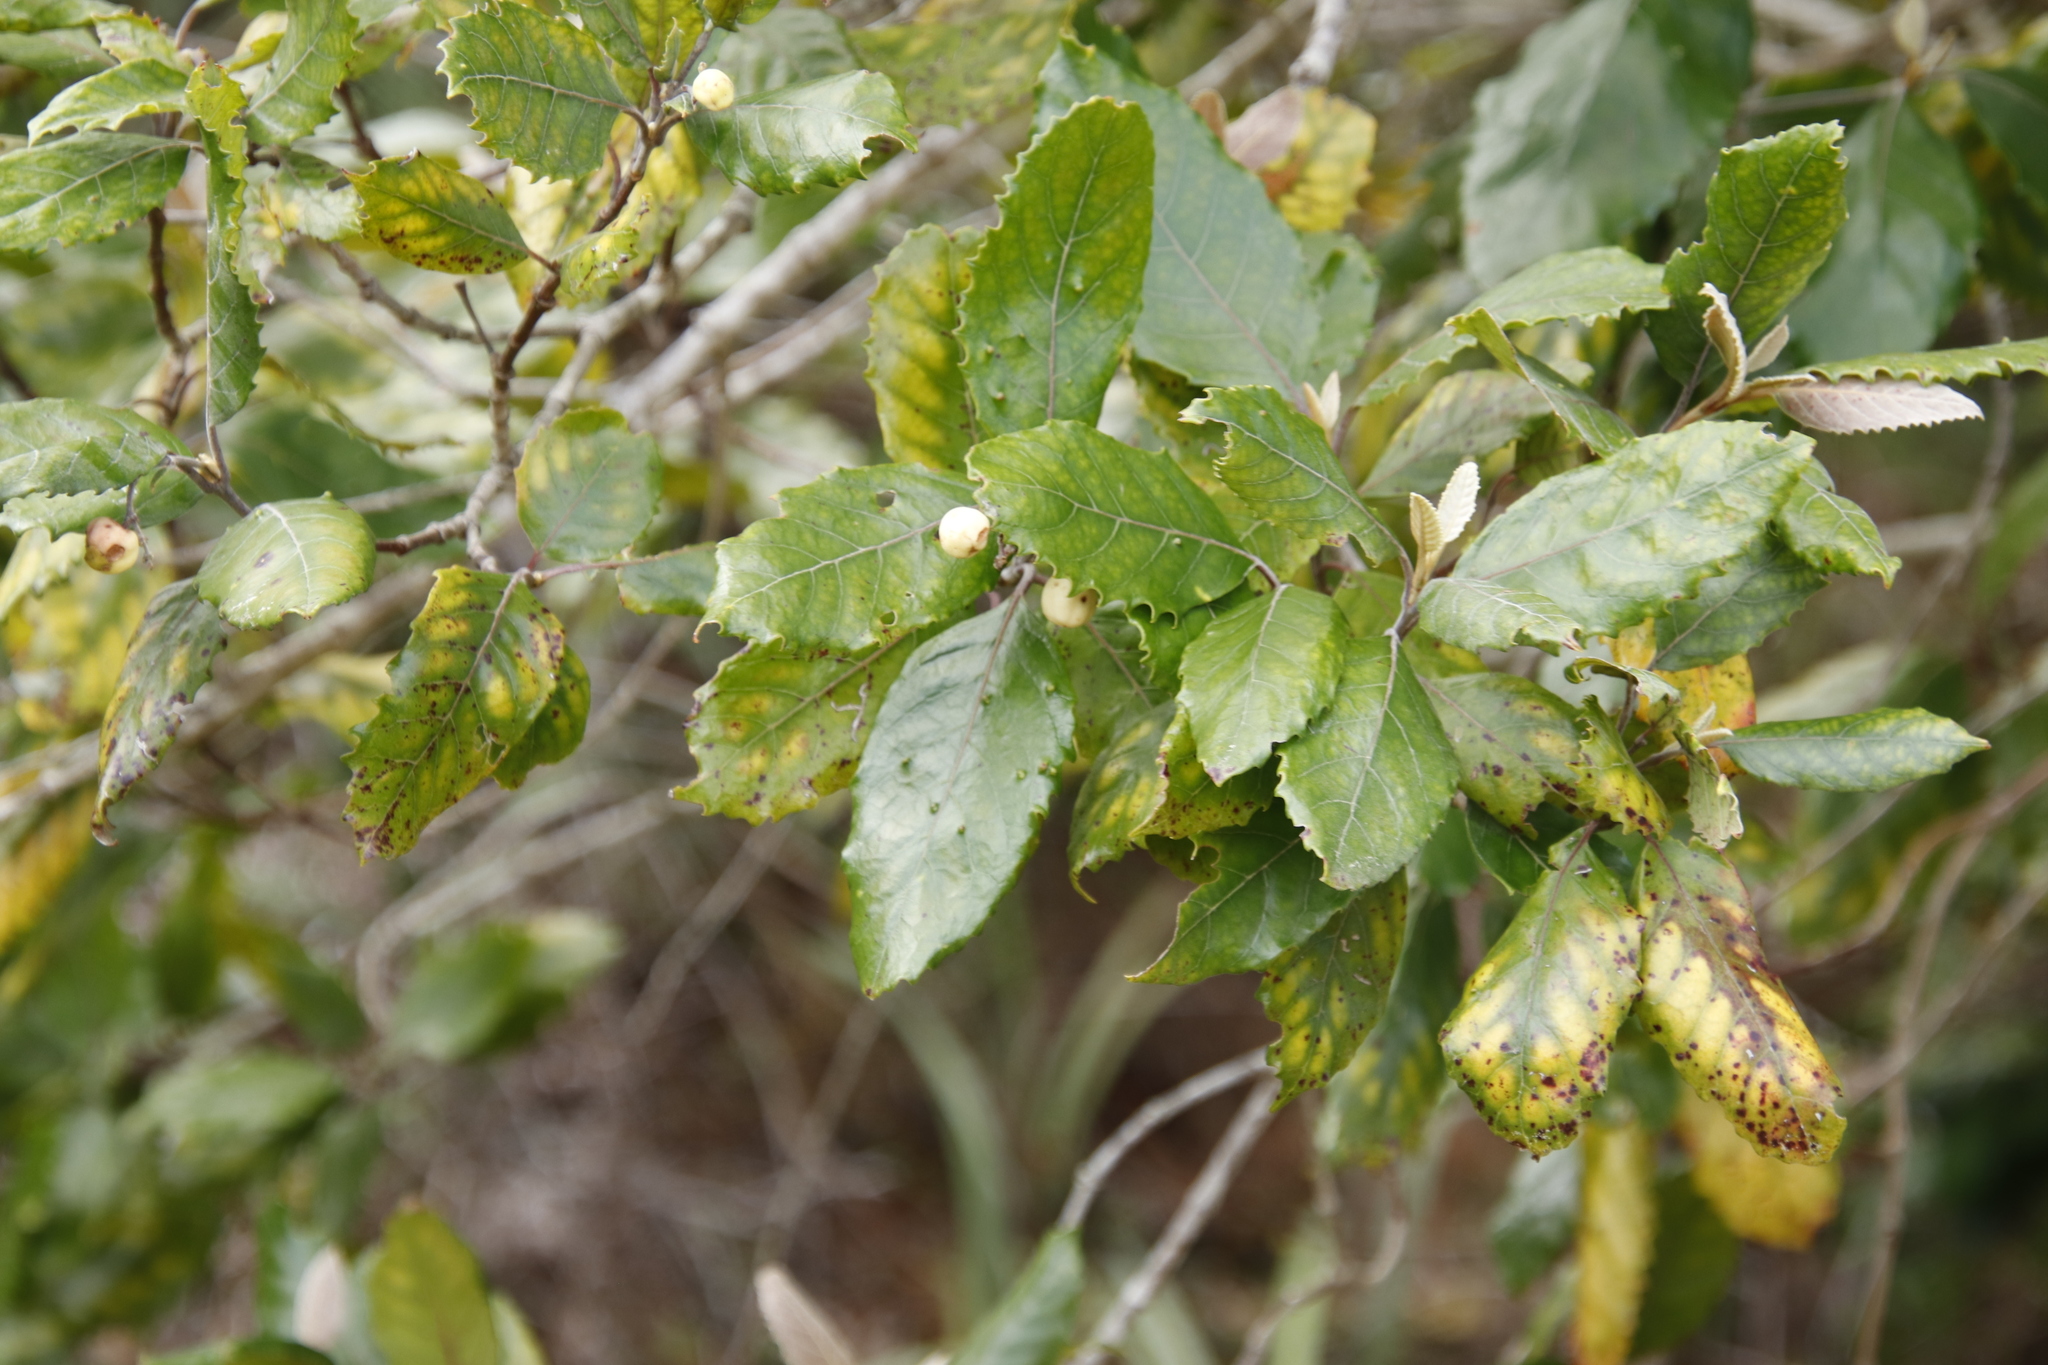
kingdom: Plantae
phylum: Tracheophyta
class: Magnoliopsida
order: Cornales
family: Curtisiaceae
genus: Curtisia
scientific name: Curtisia dentata
